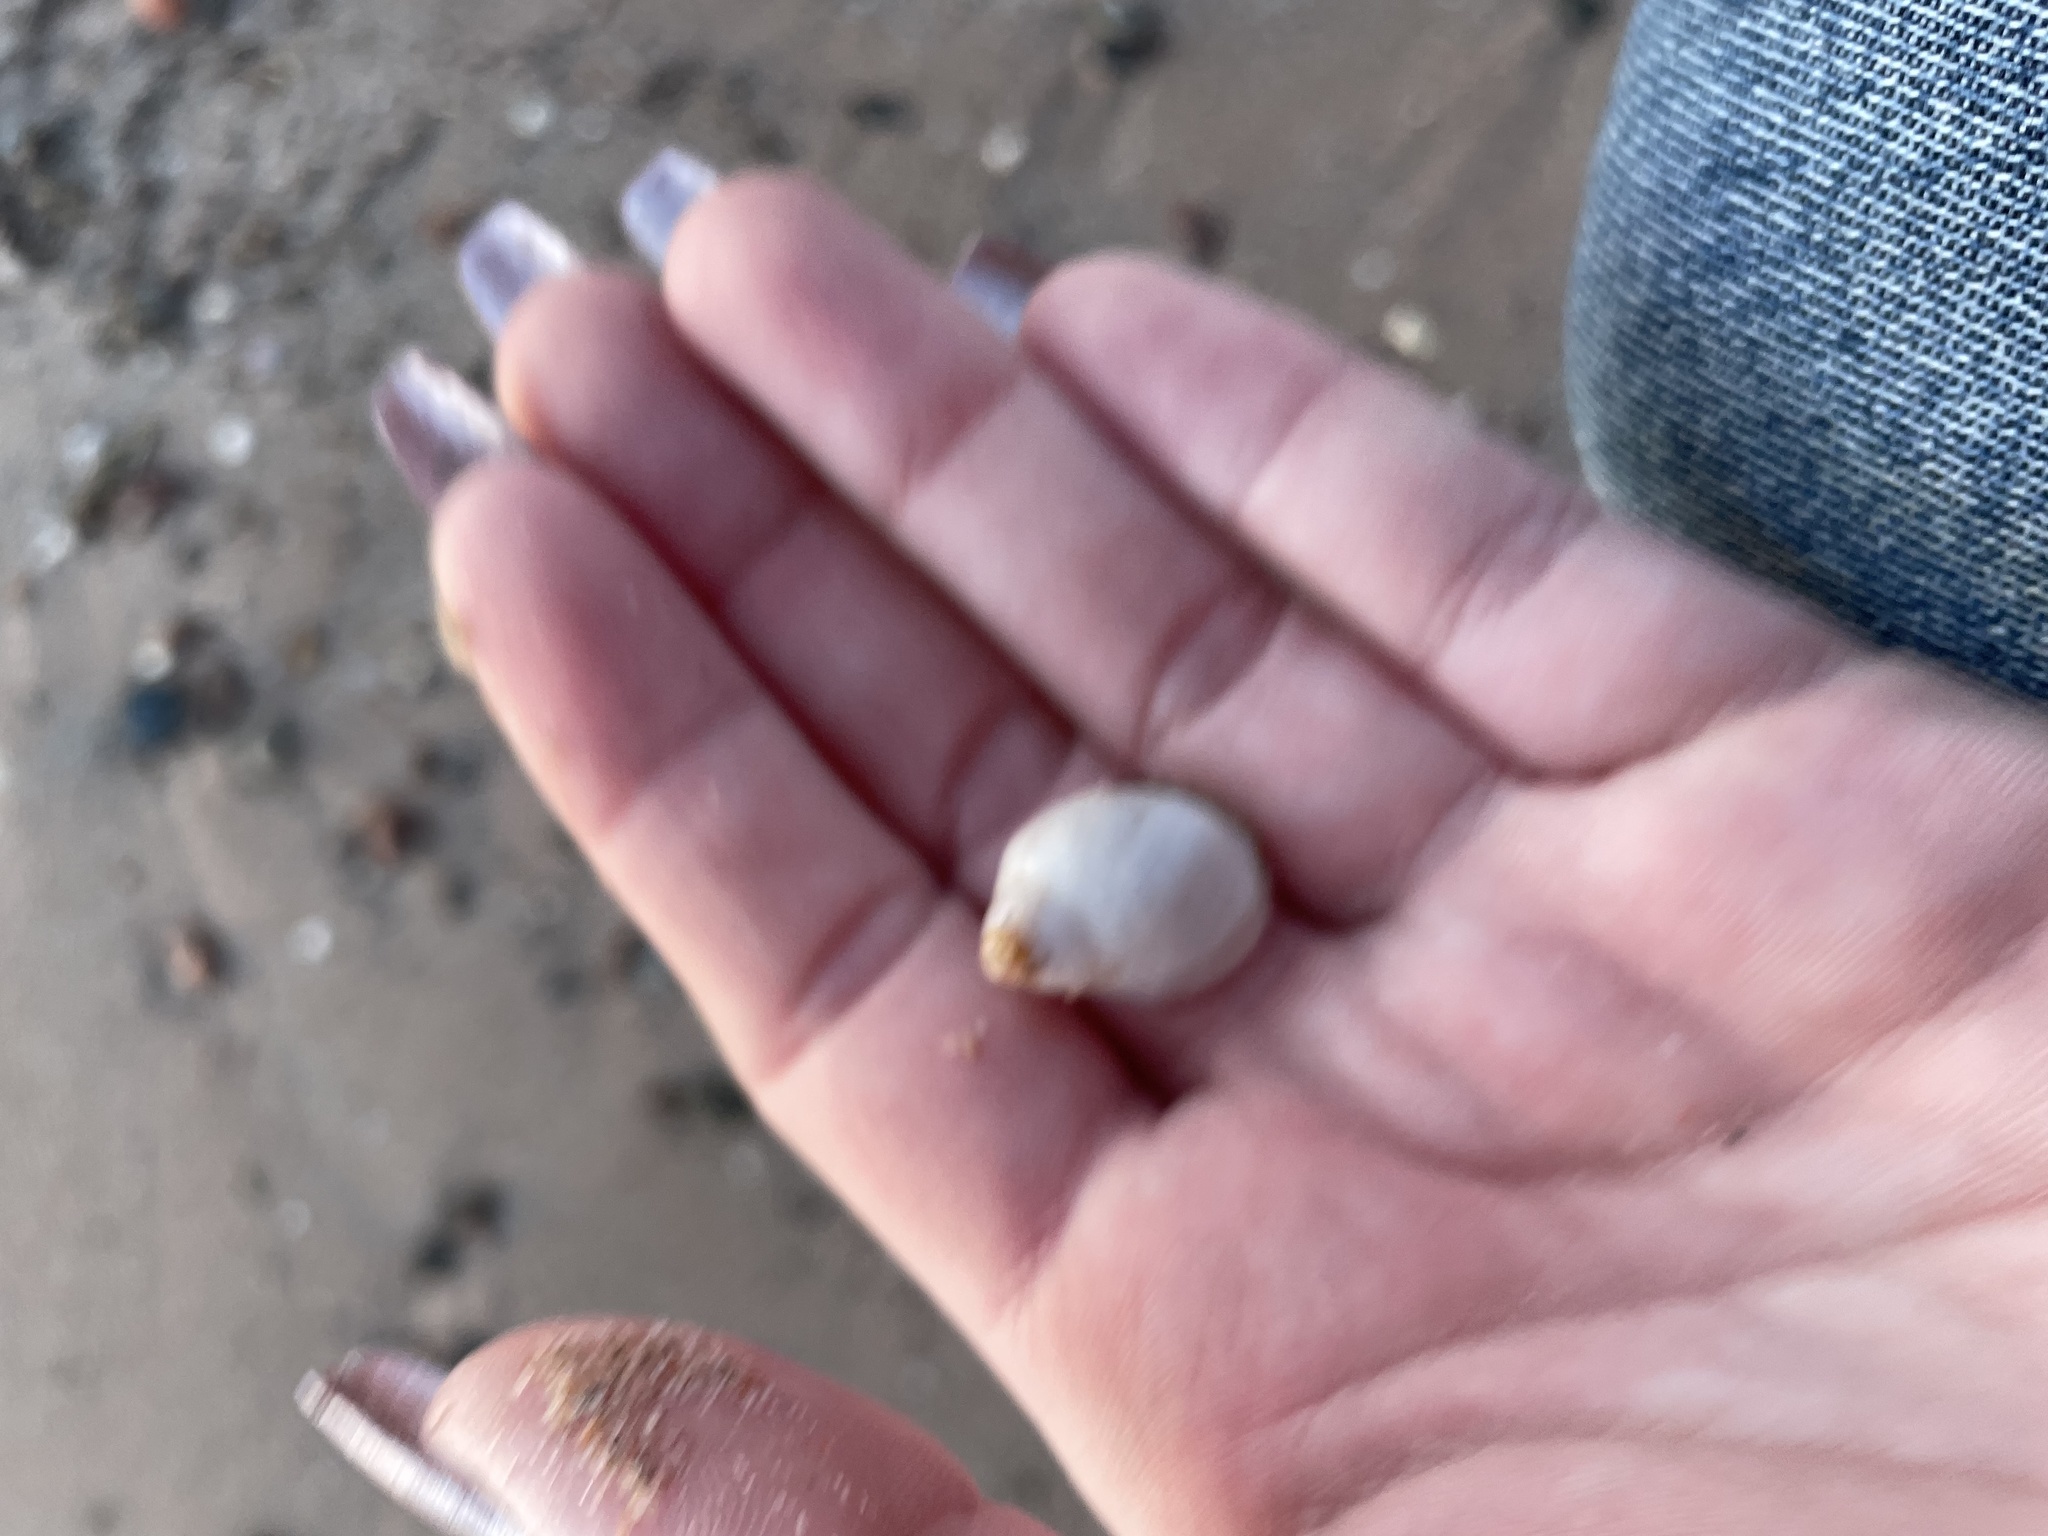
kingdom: Animalia
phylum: Mollusca
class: Gastropoda
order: Neogastropoda
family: Muricidae
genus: Nucella
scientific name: Nucella lapillus
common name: Dog whelk
